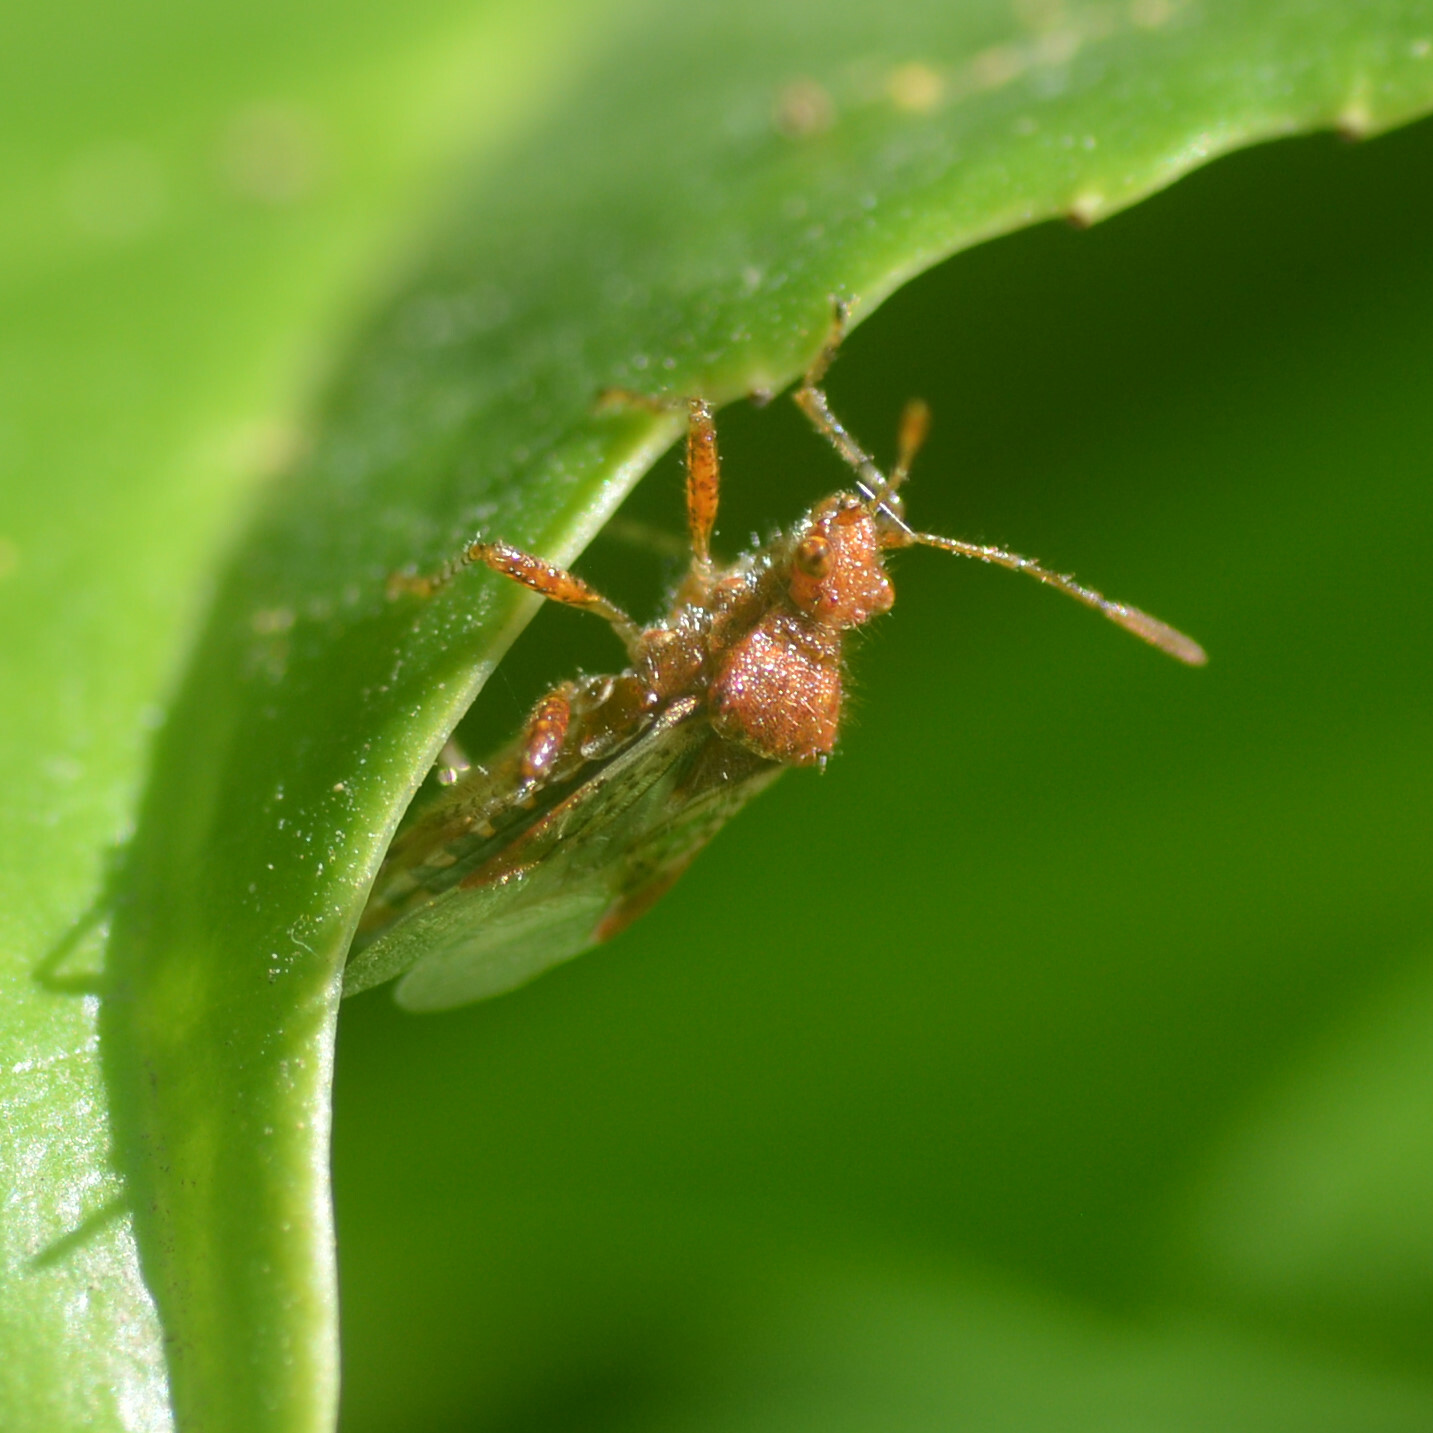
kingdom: Animalia
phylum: Arthropoda
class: Insecta
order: Hemiptera
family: Rhopalidae
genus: Rhopalus
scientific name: Rhopalus subrufus
